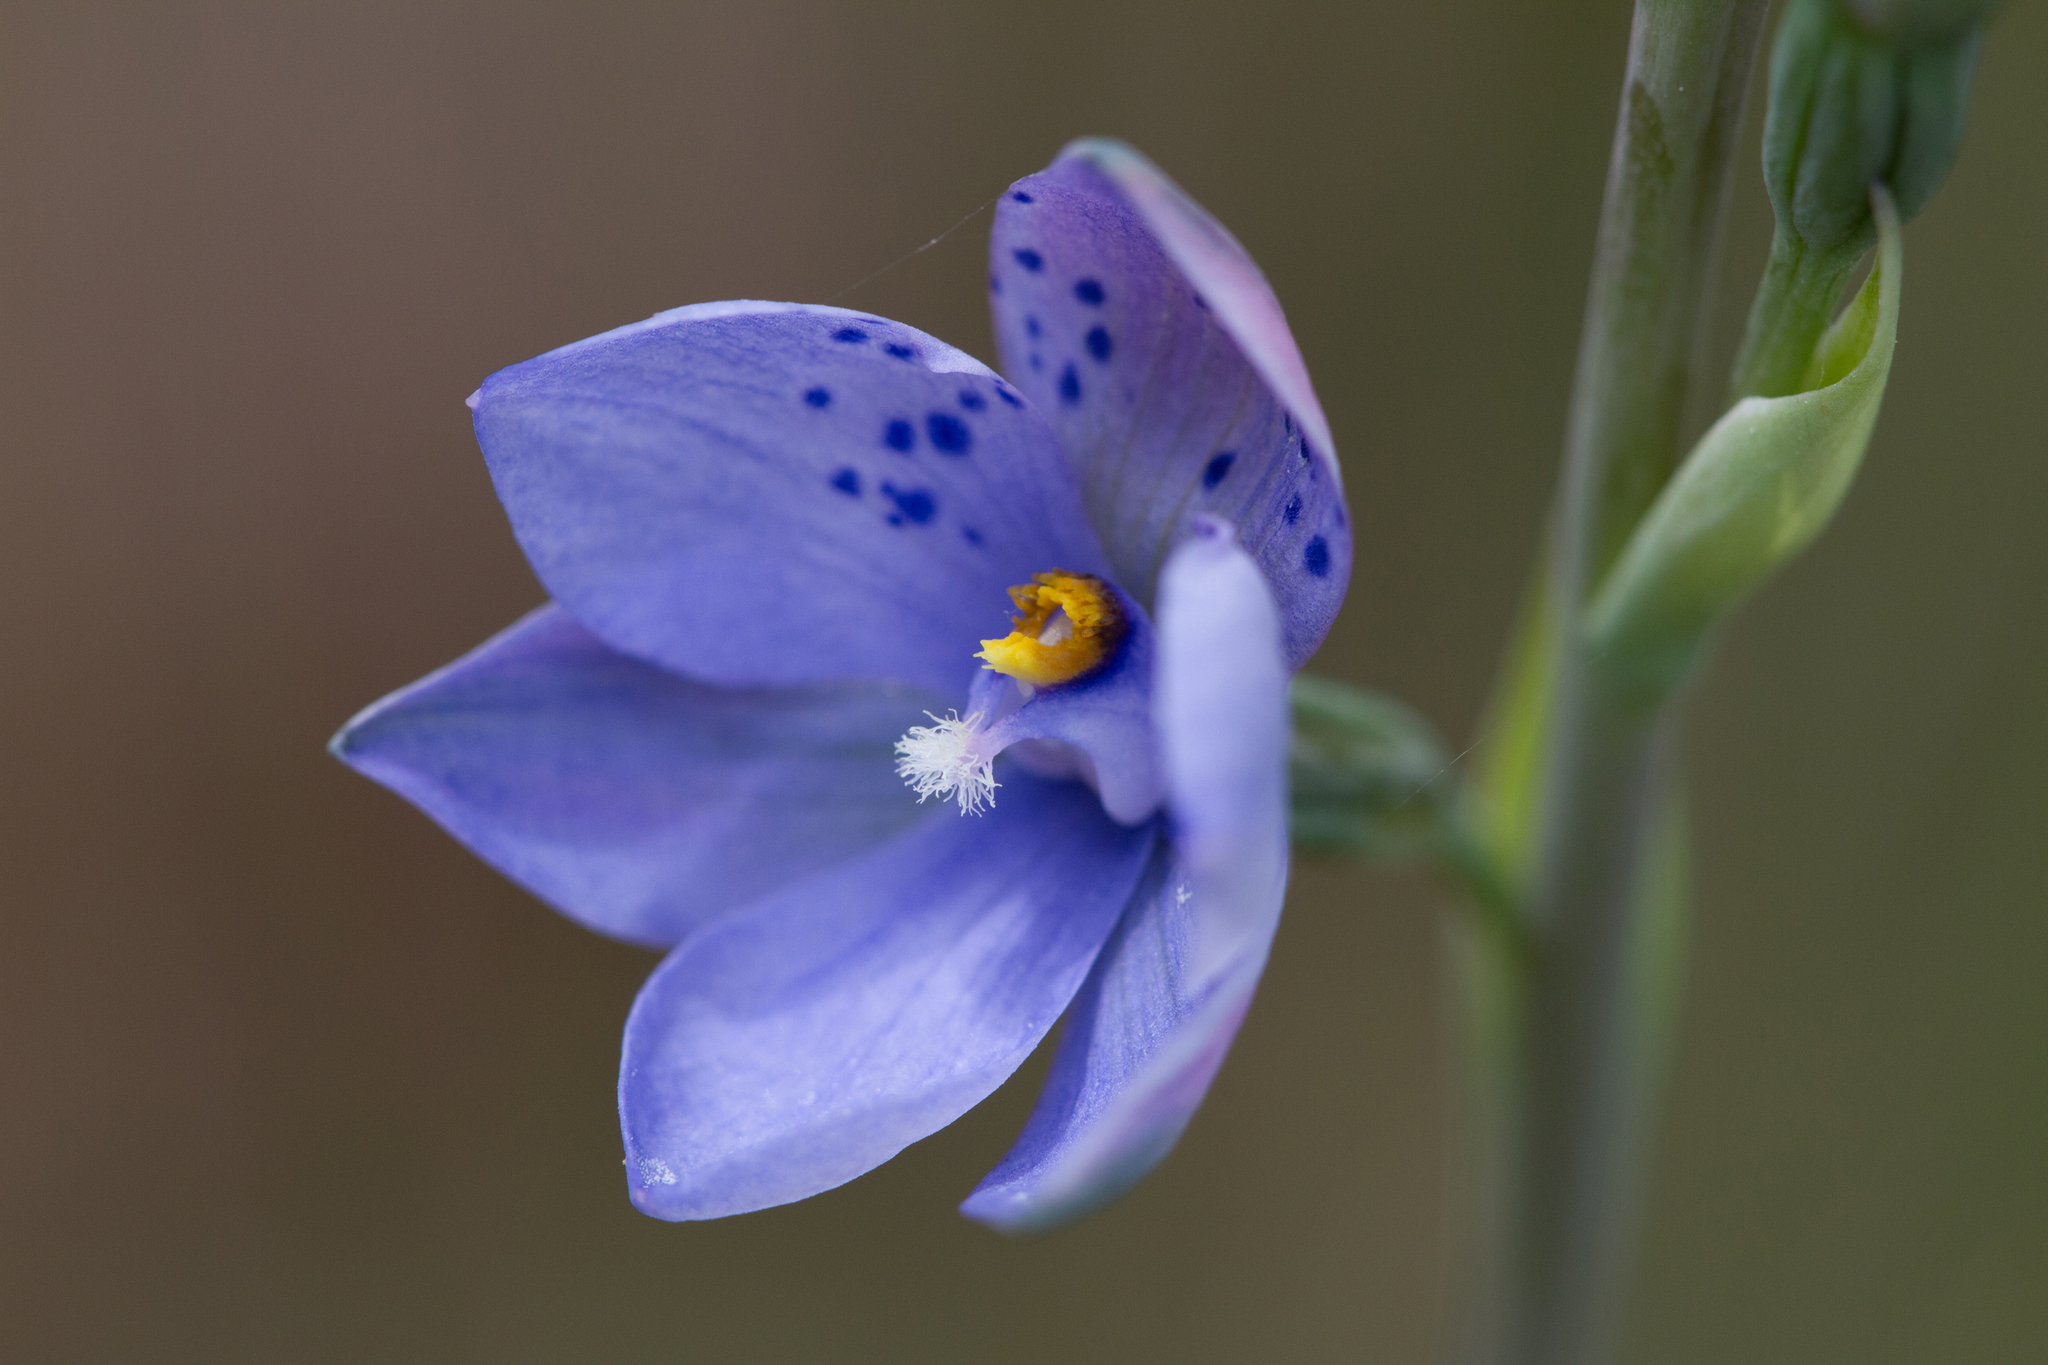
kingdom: Plantae
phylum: Tracheophyta
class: Liliopsida
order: Asparagales
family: Orchidaceae
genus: Thelymitra
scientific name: Thelymitra juncifolia
